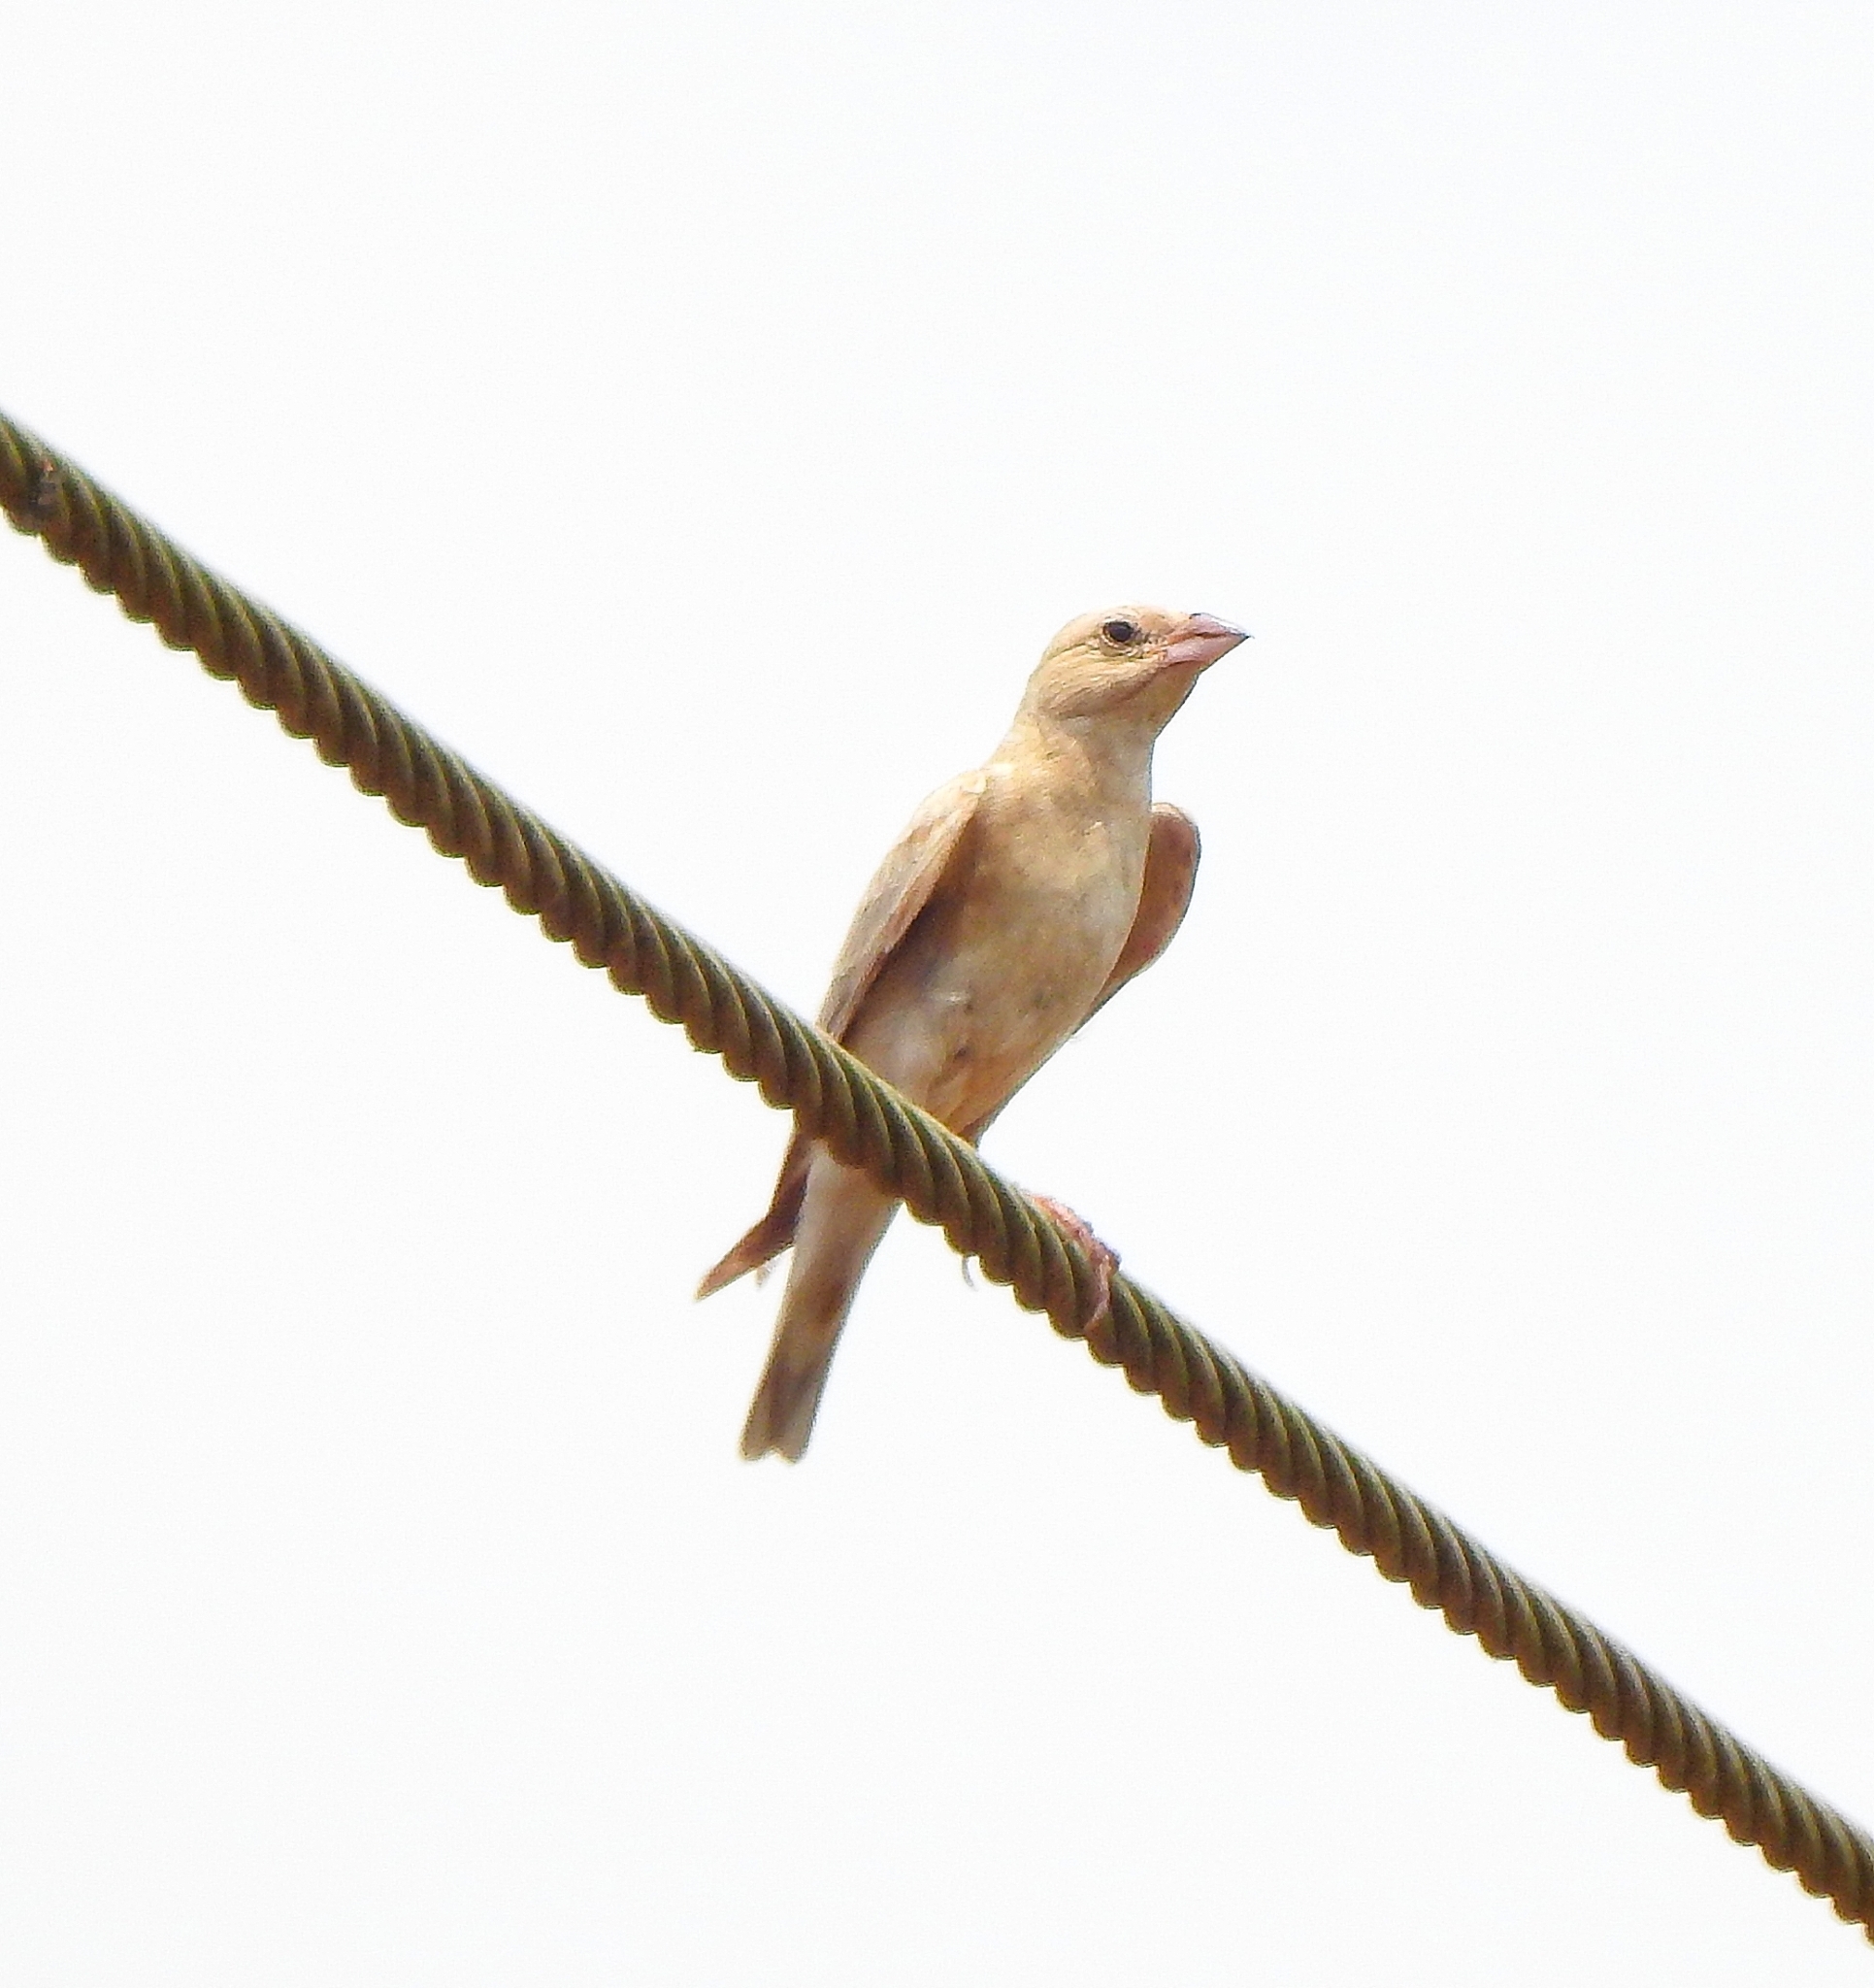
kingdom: Animalia
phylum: Chordata
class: Aves
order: Passeriformes
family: Passeridae
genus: Carpospiza
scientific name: Carpospiza brachydactyla
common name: Pale rockfinch
